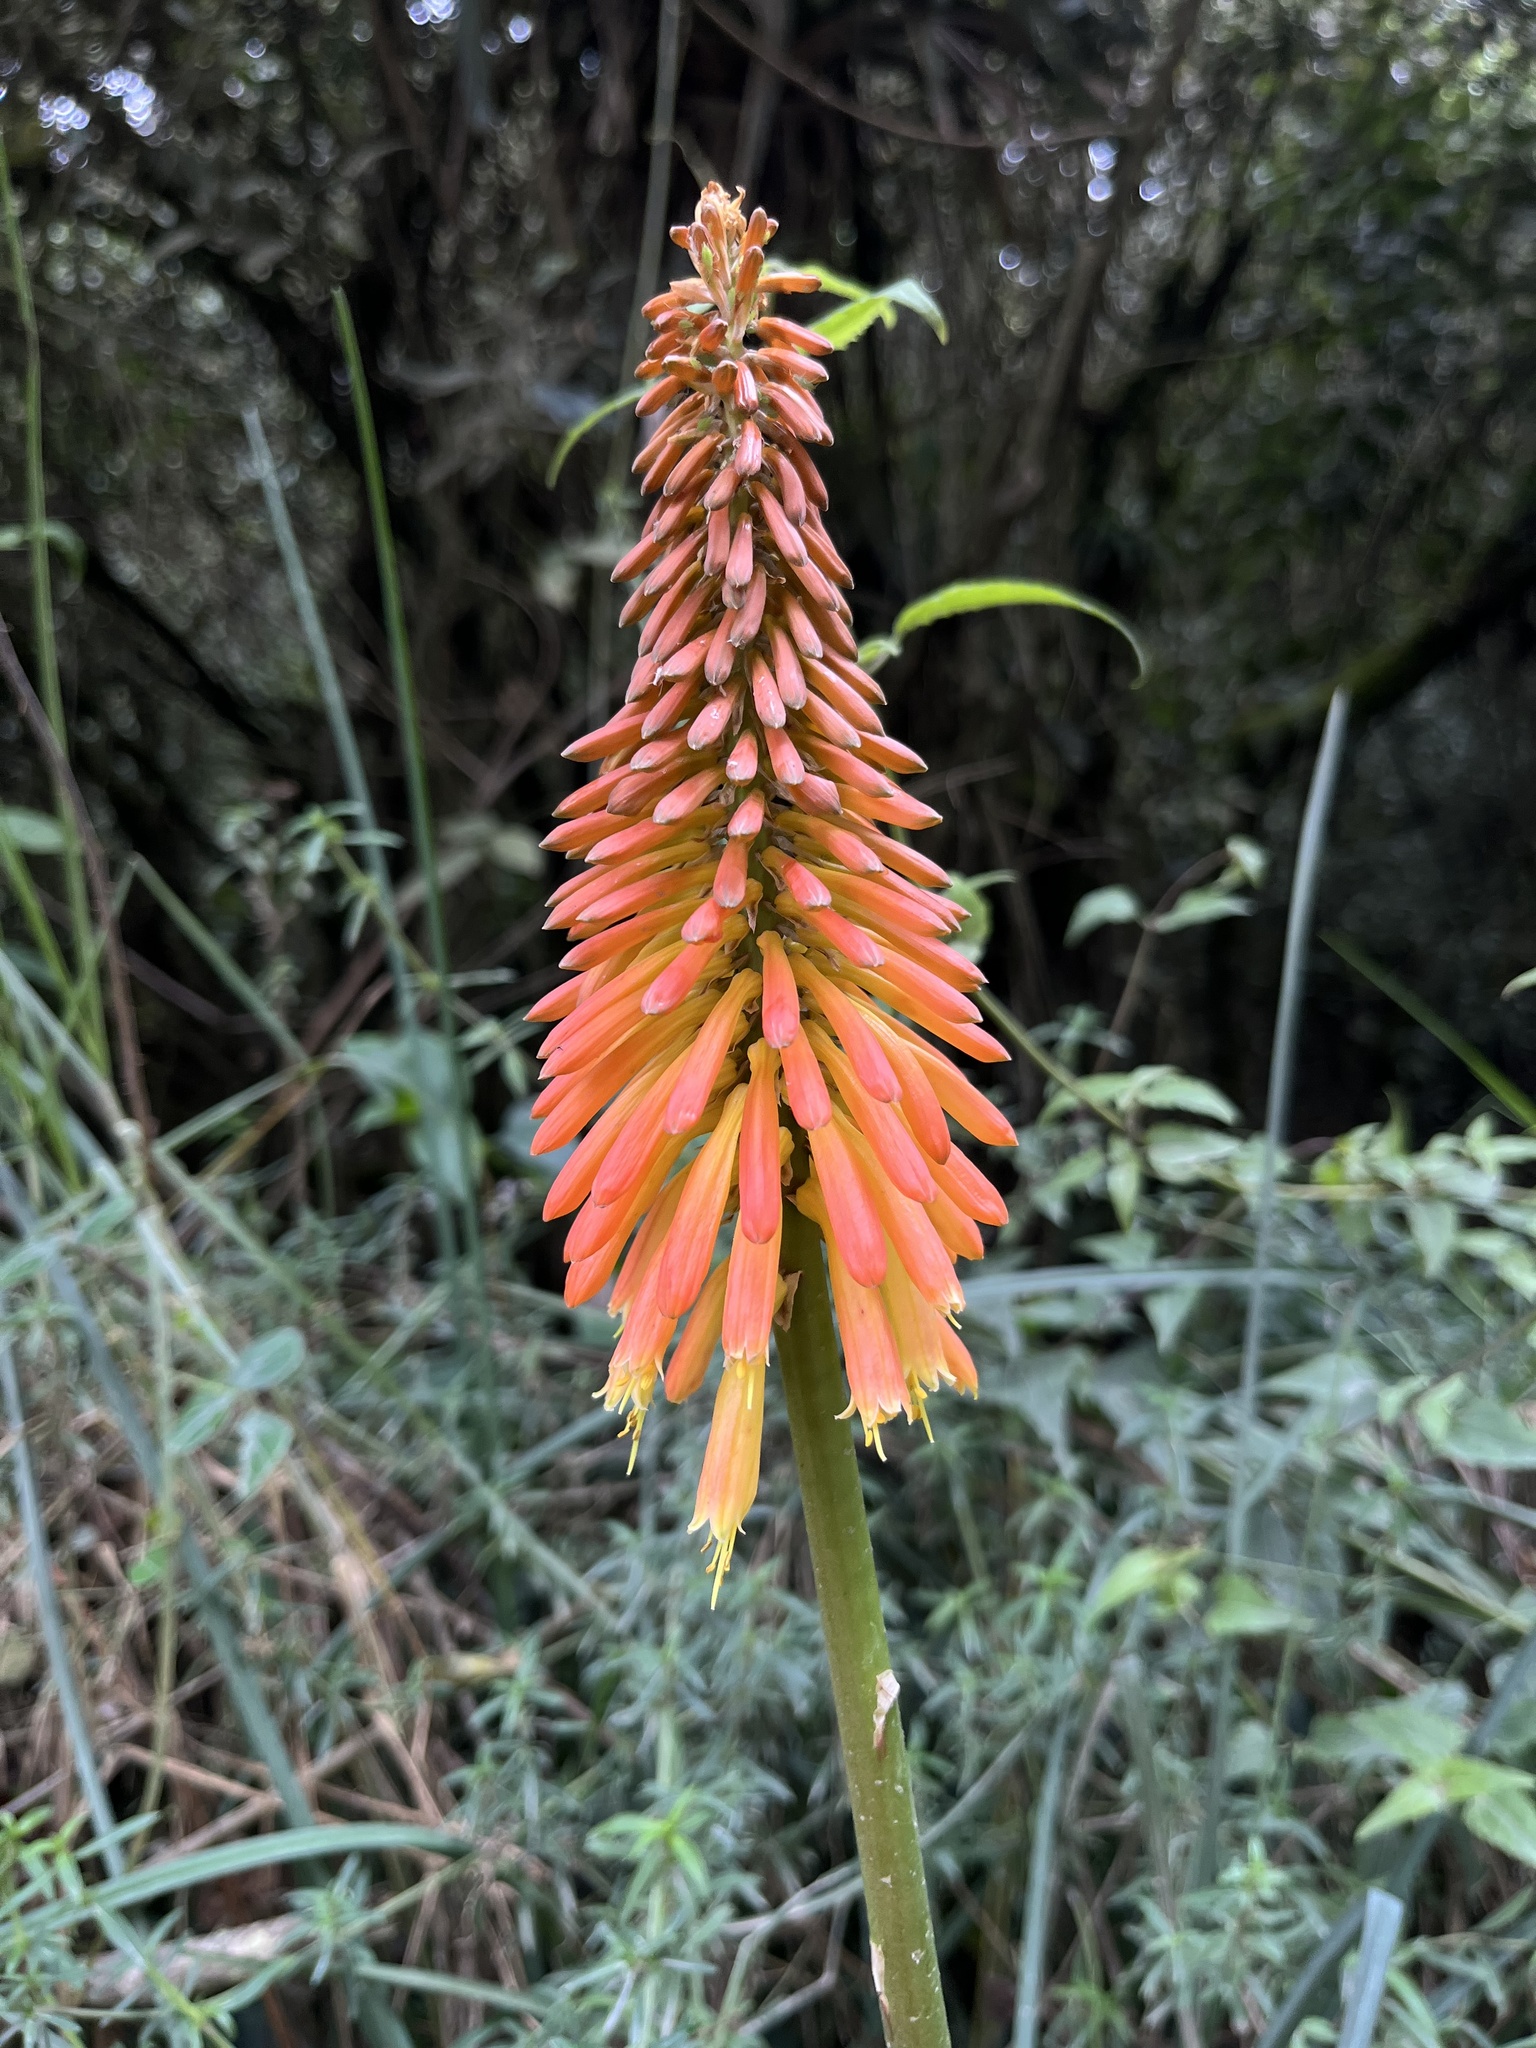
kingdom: Plantae
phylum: Tracheophyta
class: Liliopsida
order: Asparagales
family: Asphodelaceae
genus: Kniphofia
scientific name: Kniphofia uvaria
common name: Red-hot-poker
